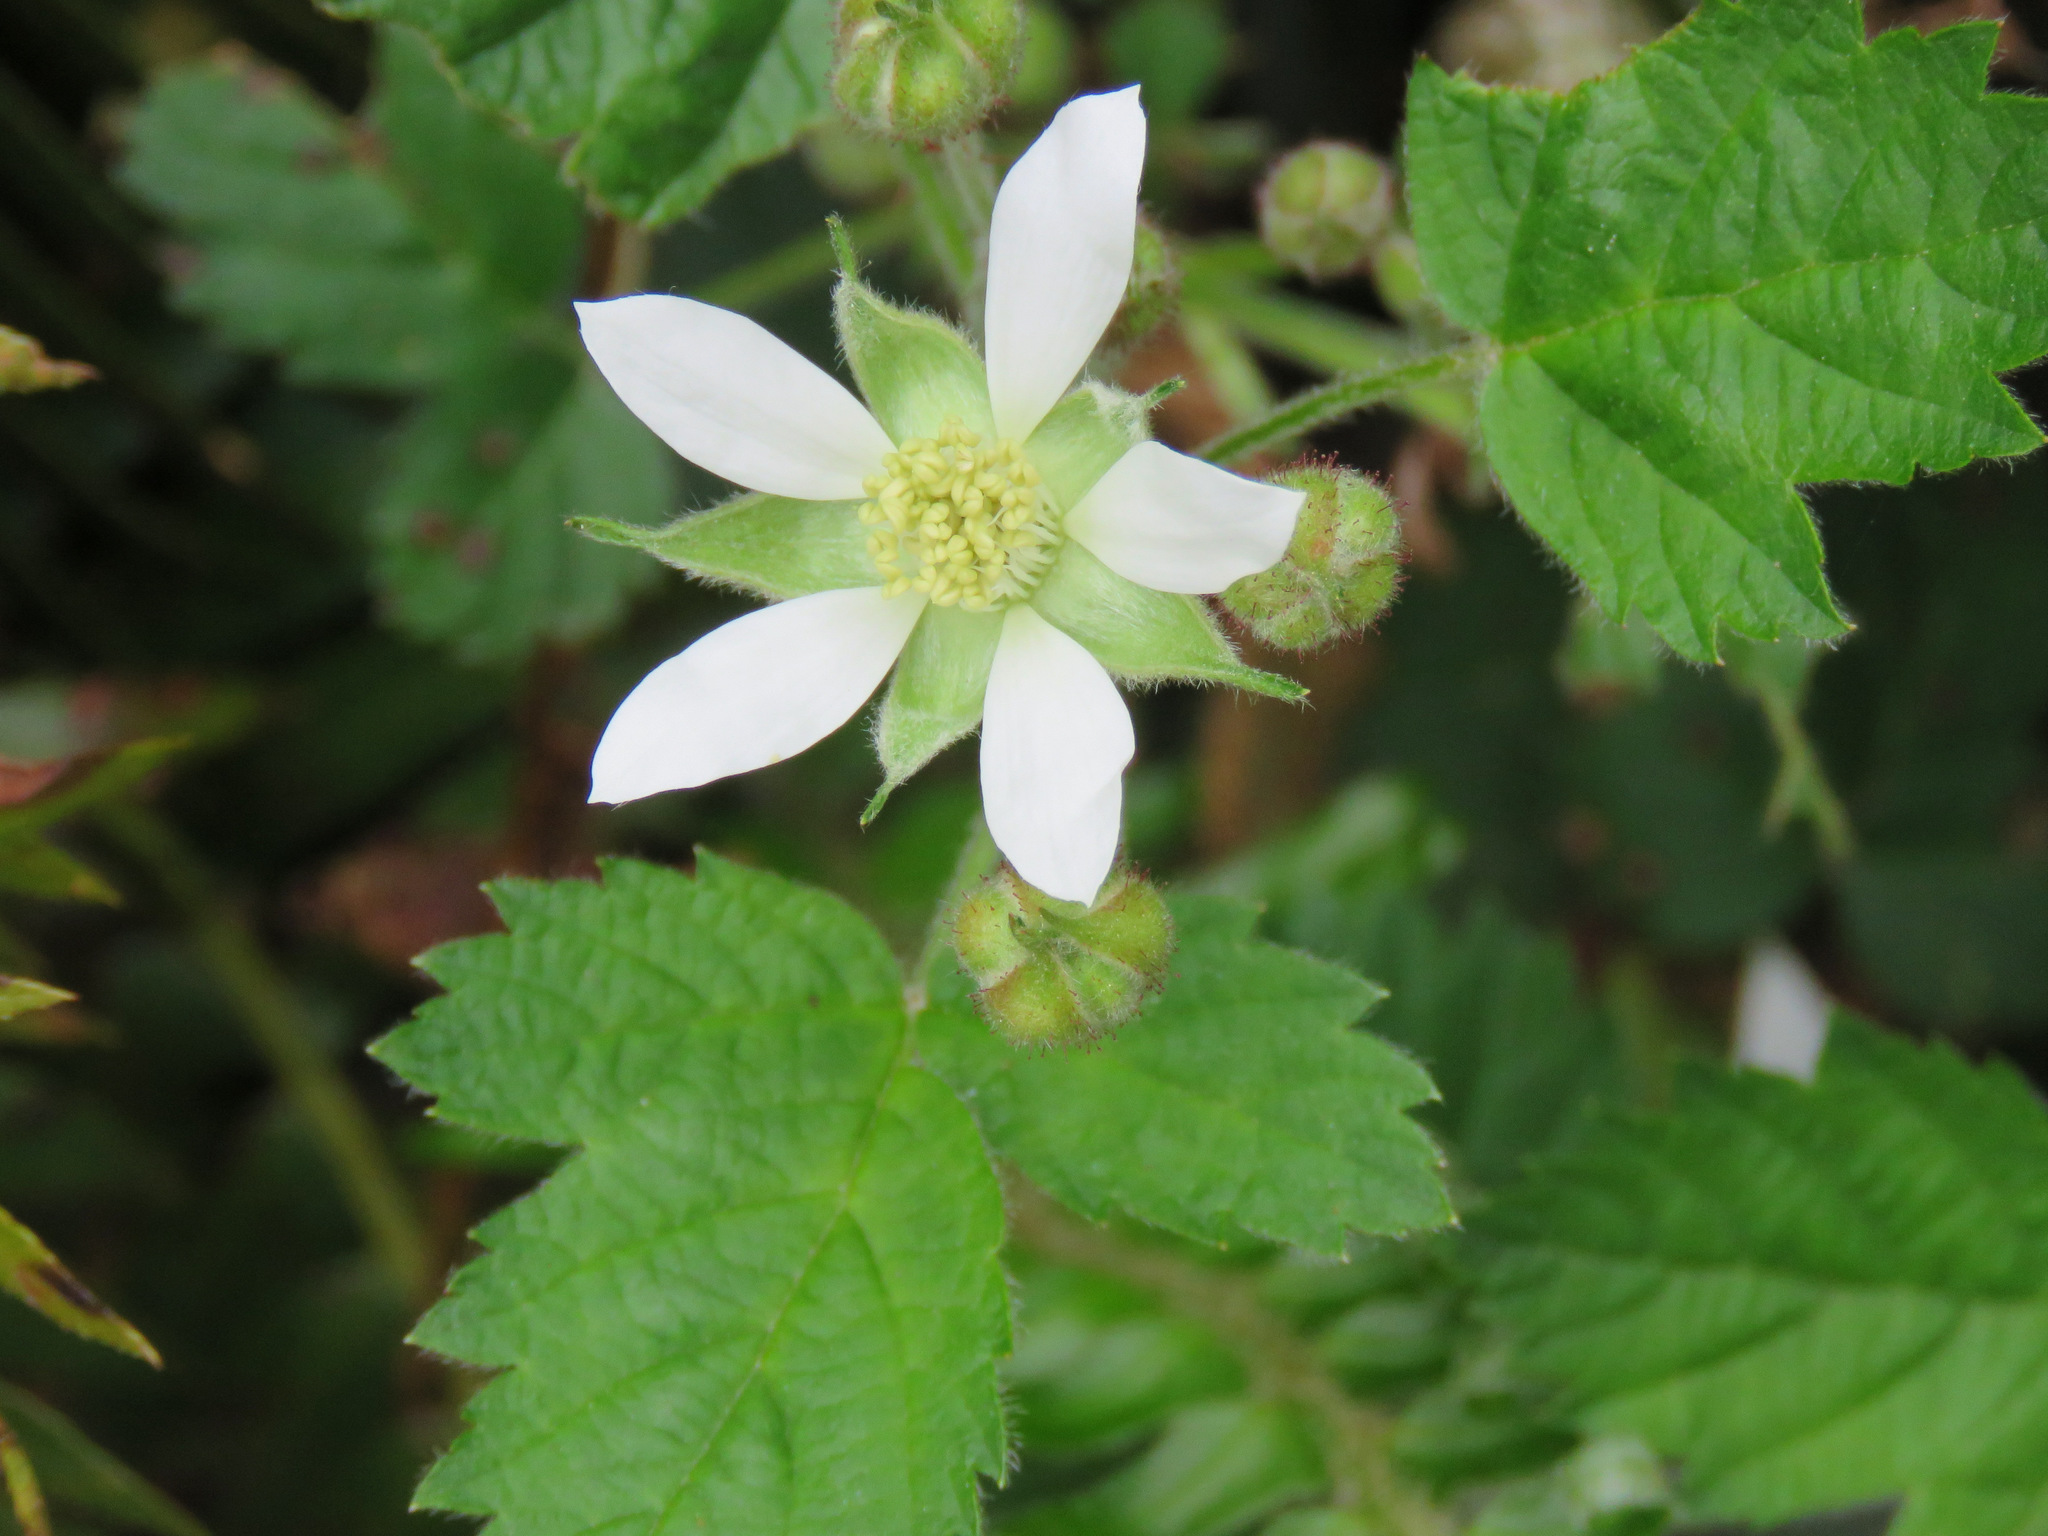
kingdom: Plantae
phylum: Tracheophyta
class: Magnoliopsida
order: Rosales
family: Rosaceae
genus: Rubus
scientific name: Rubus ursinus
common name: Pacific blackberry
